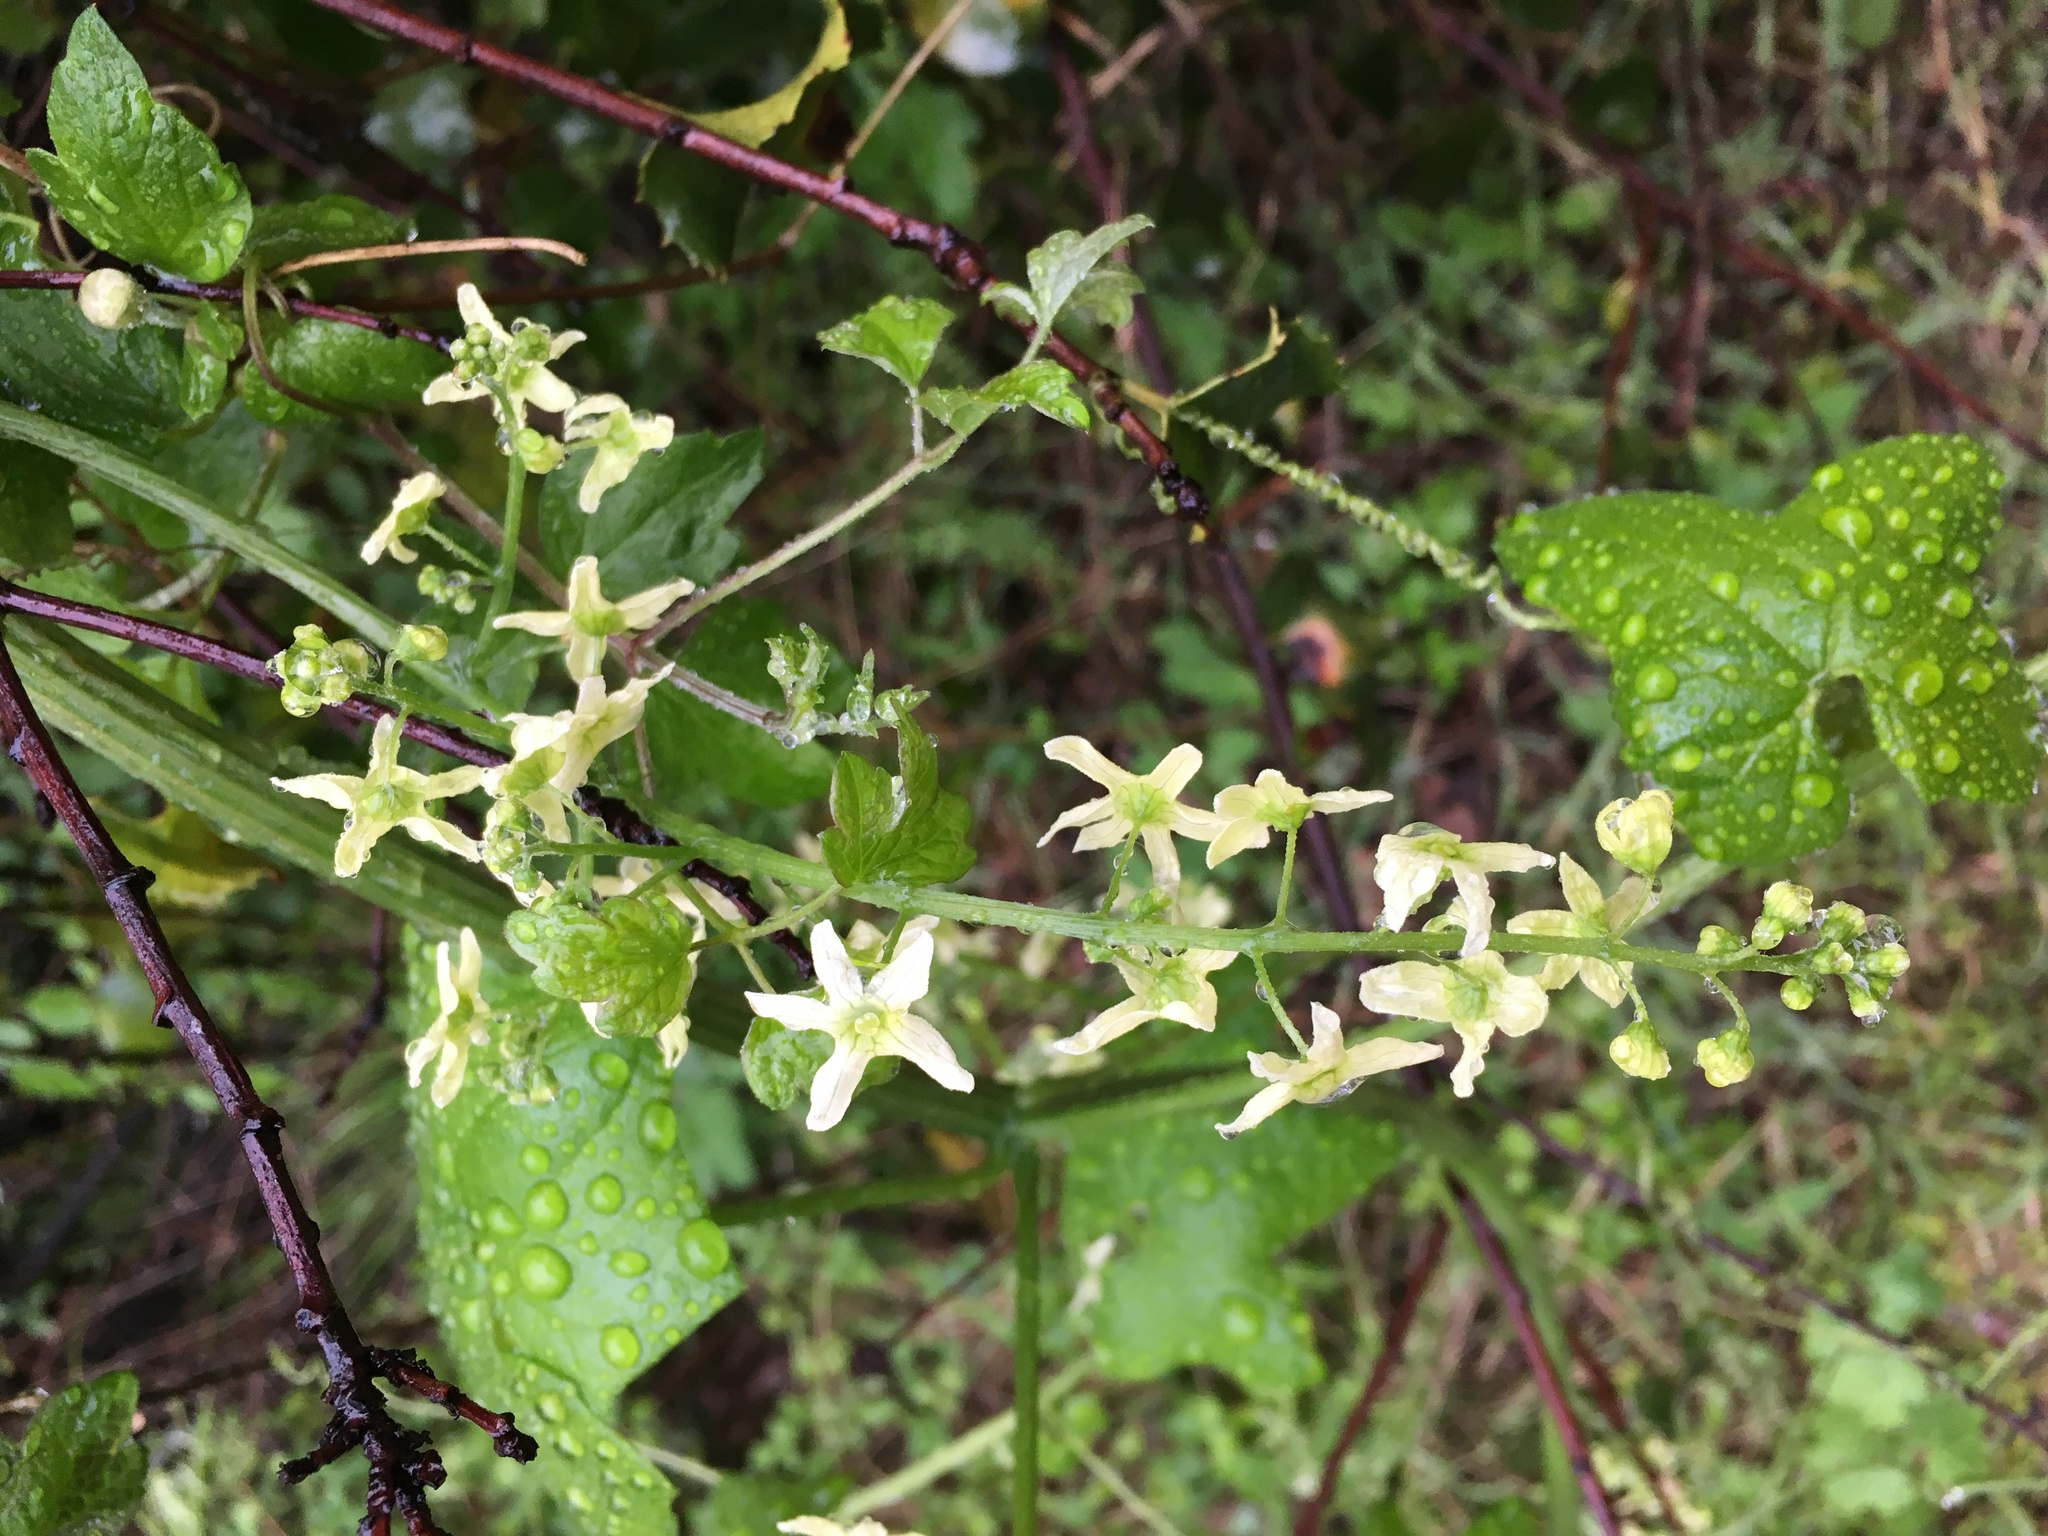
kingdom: Plantae
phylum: Tracheophyta
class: Magnoliopsida
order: Cucurbitales
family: Cucurbitaceae
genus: Marah
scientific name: Marah fabacea
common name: California manroot
